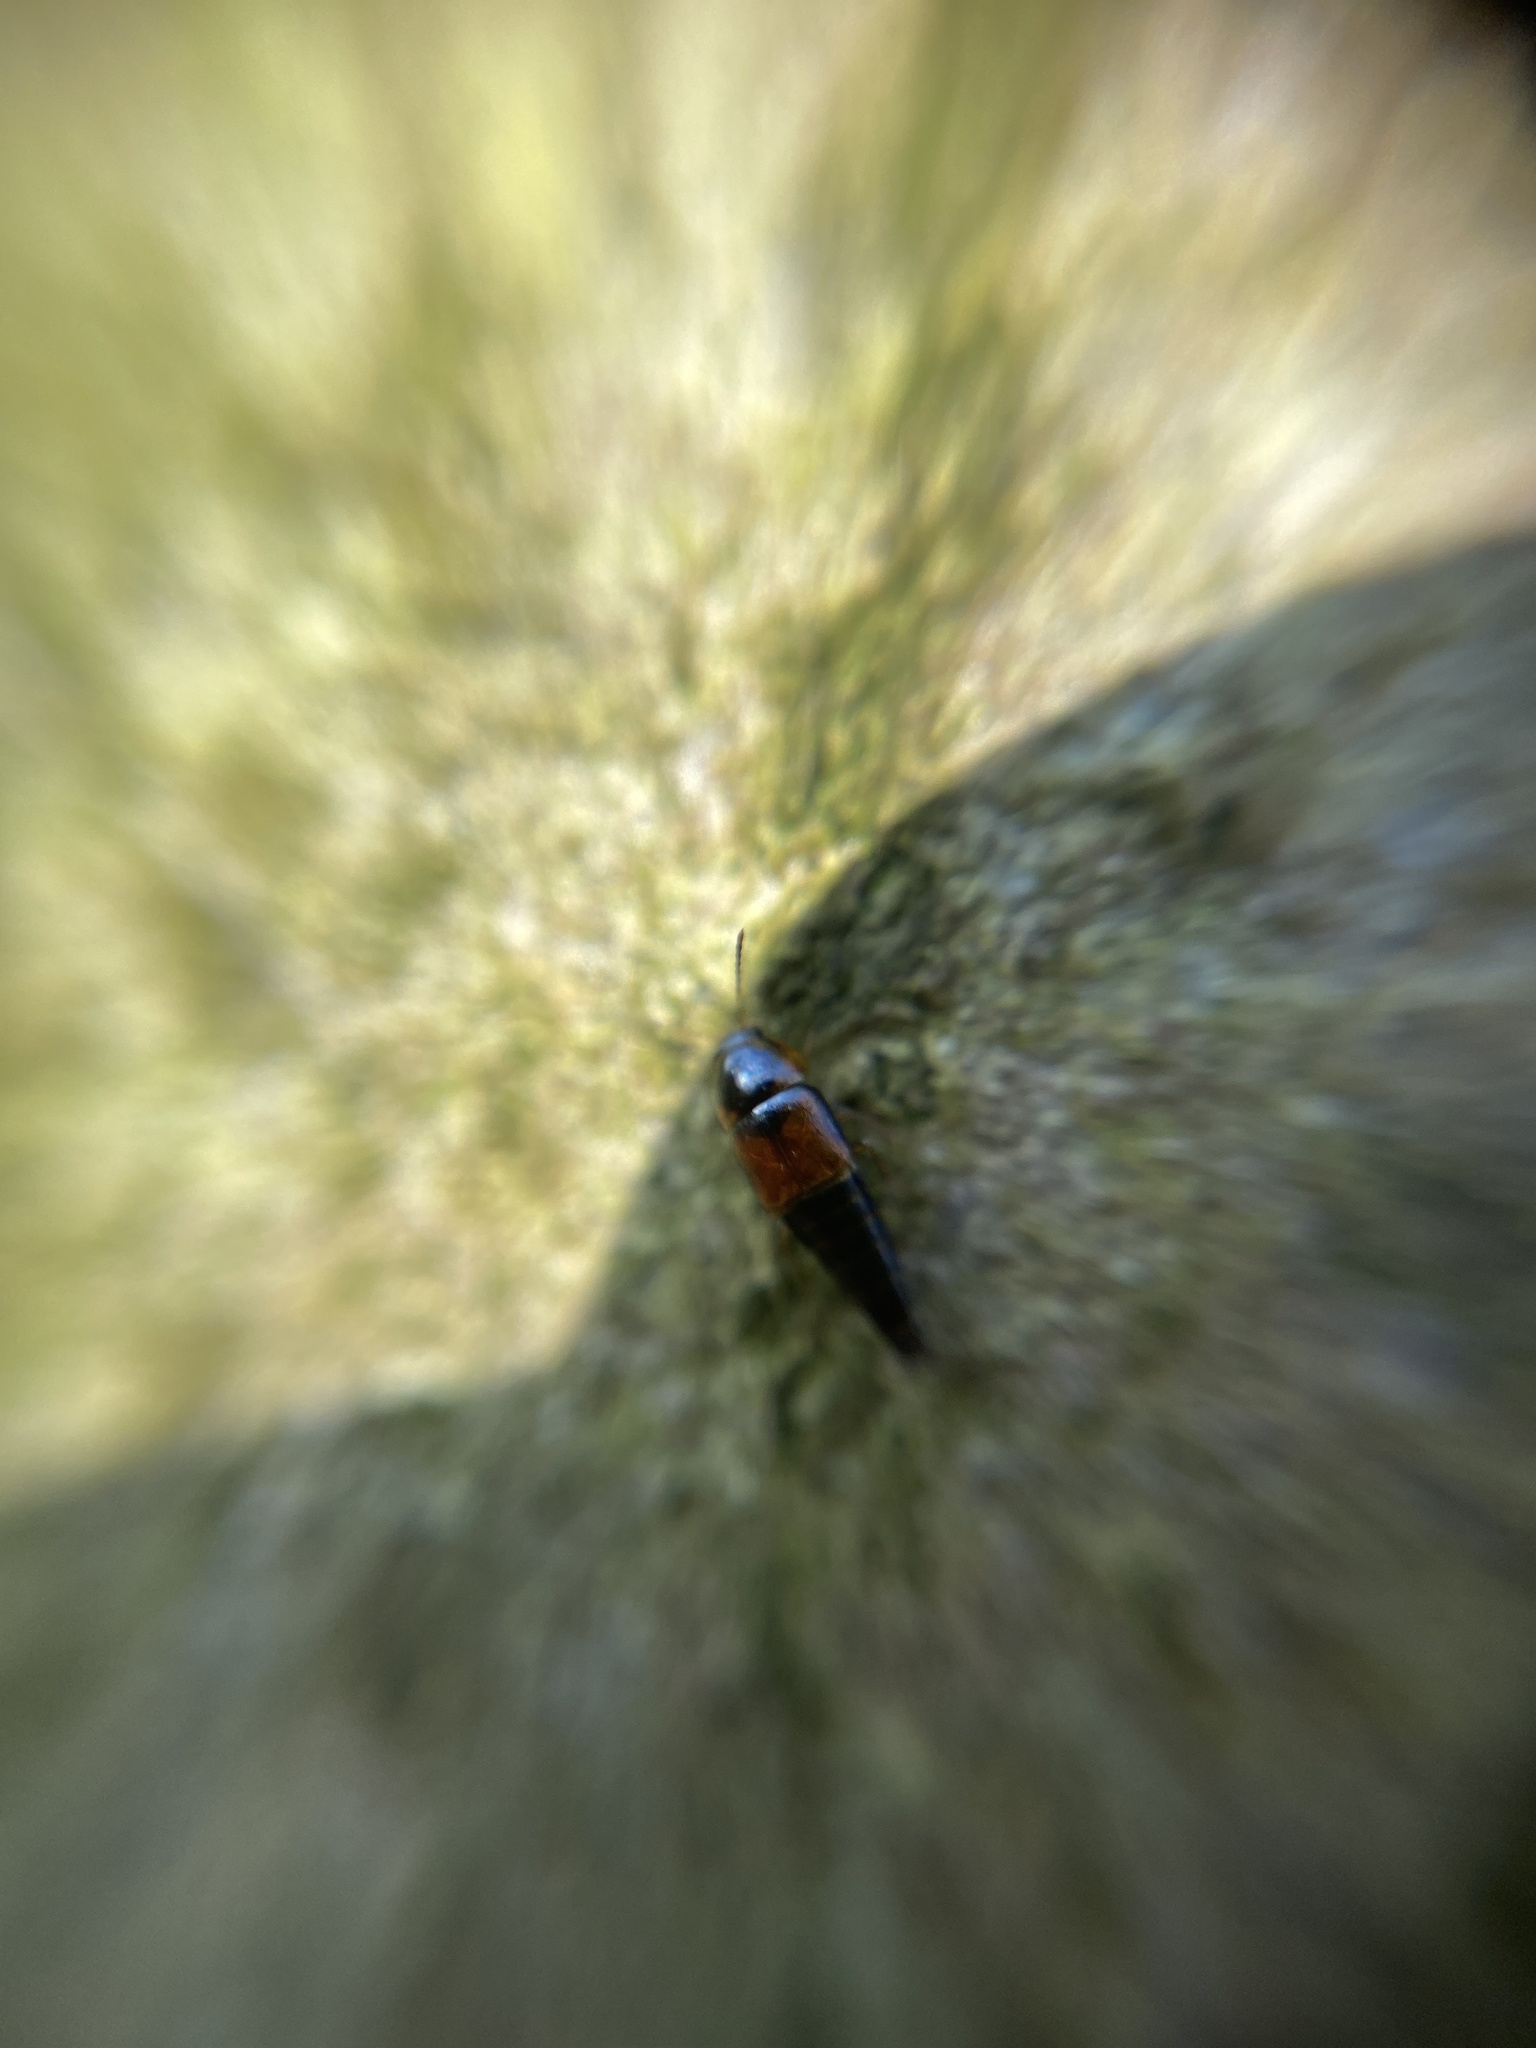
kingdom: Animalia
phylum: Arthropoda
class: Insecta
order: Coleoptera
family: Staphylinidae
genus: Tachyporus
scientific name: Tachyporus hypnorum
